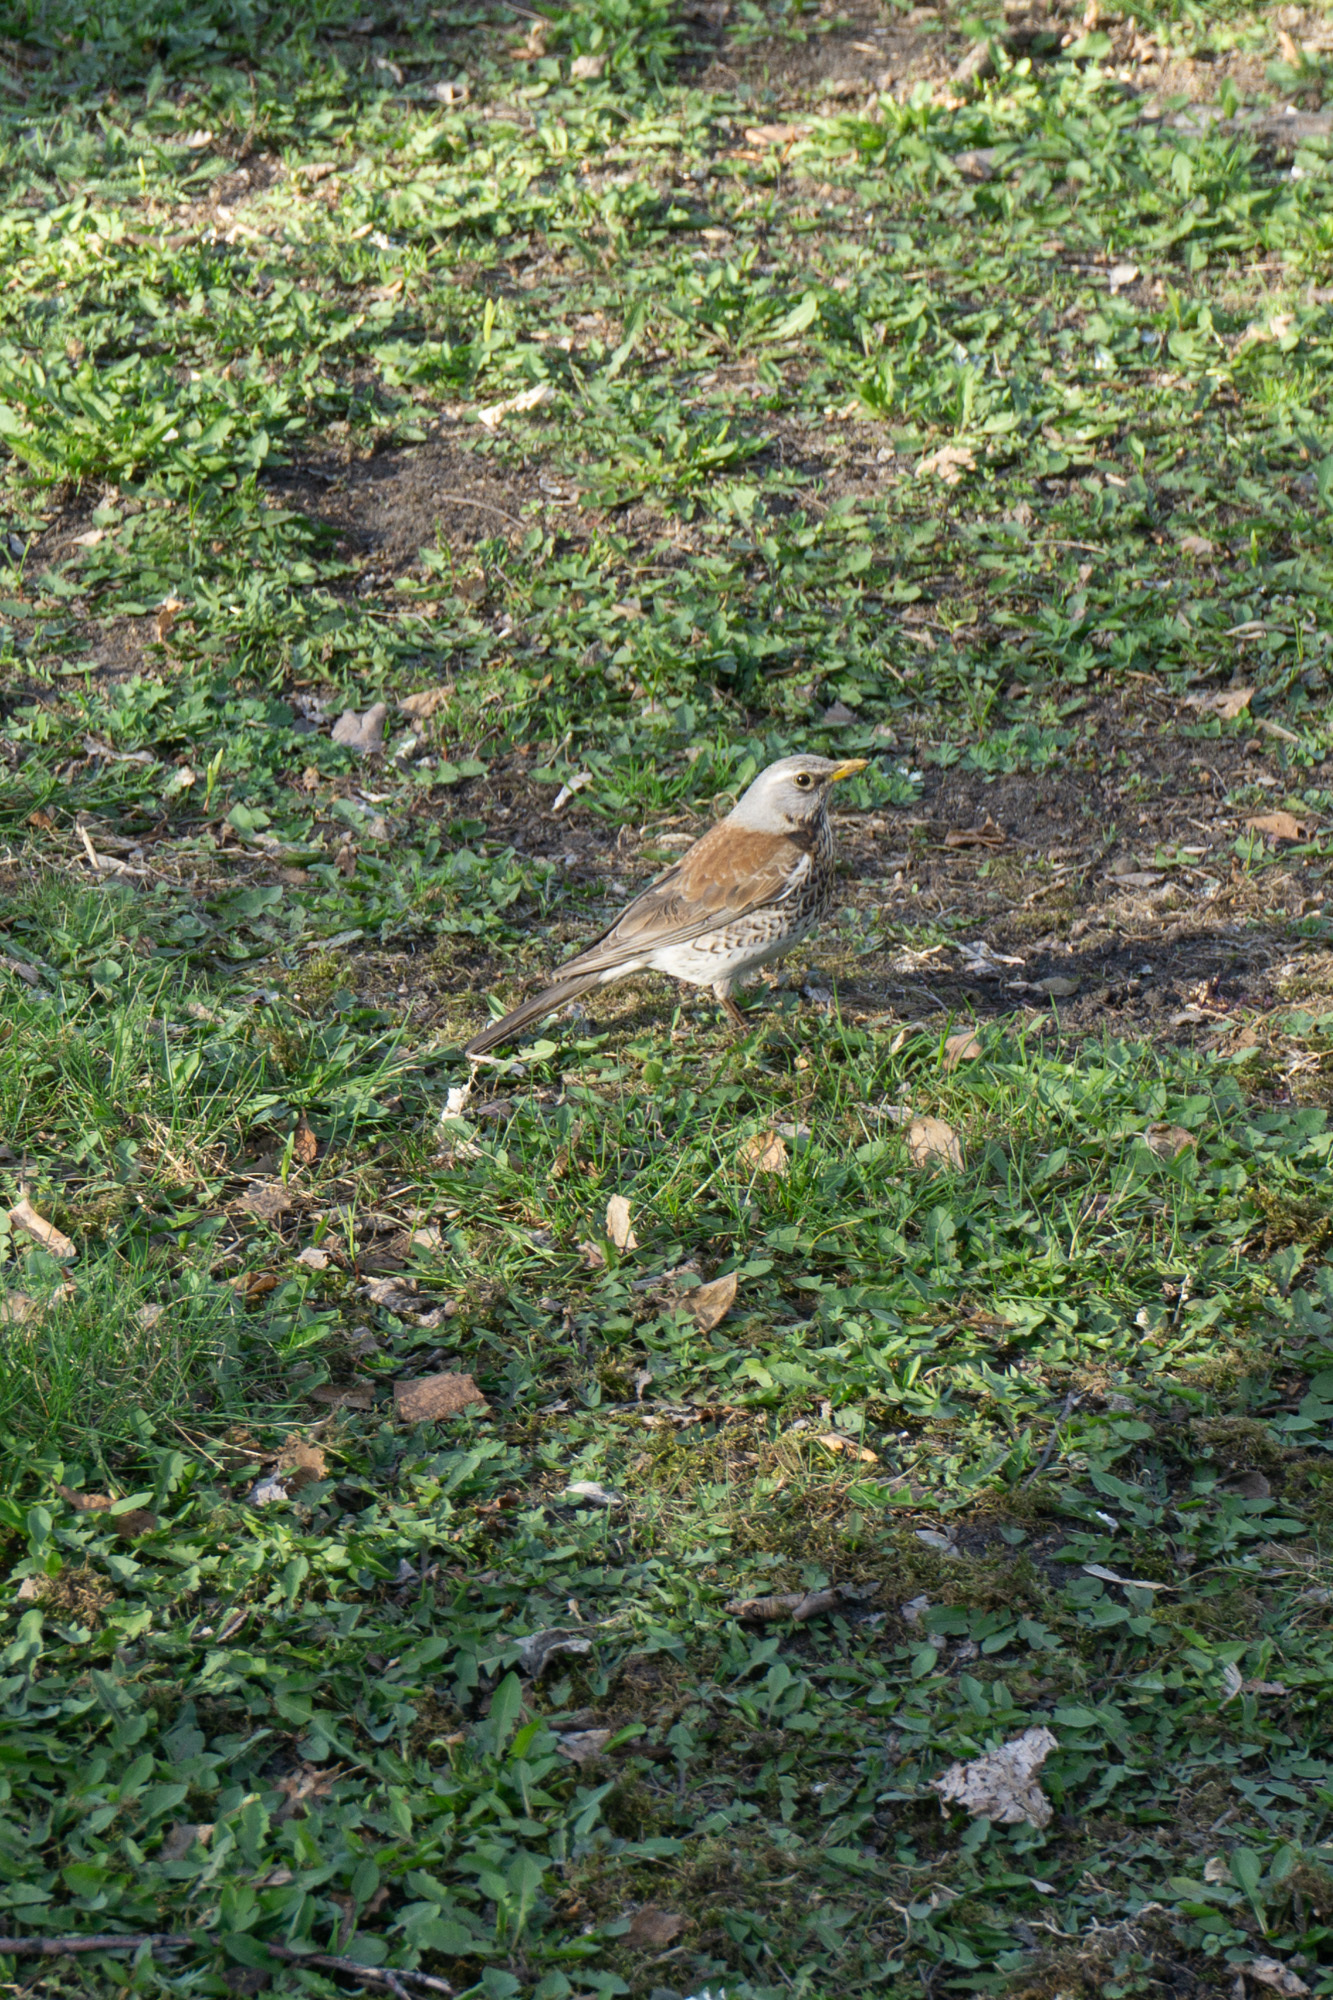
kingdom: Animalia
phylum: Chordata
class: Aves
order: Passeriformes
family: Turdidae
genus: Turdus
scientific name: Turdus pilaris
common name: Fieldfare
